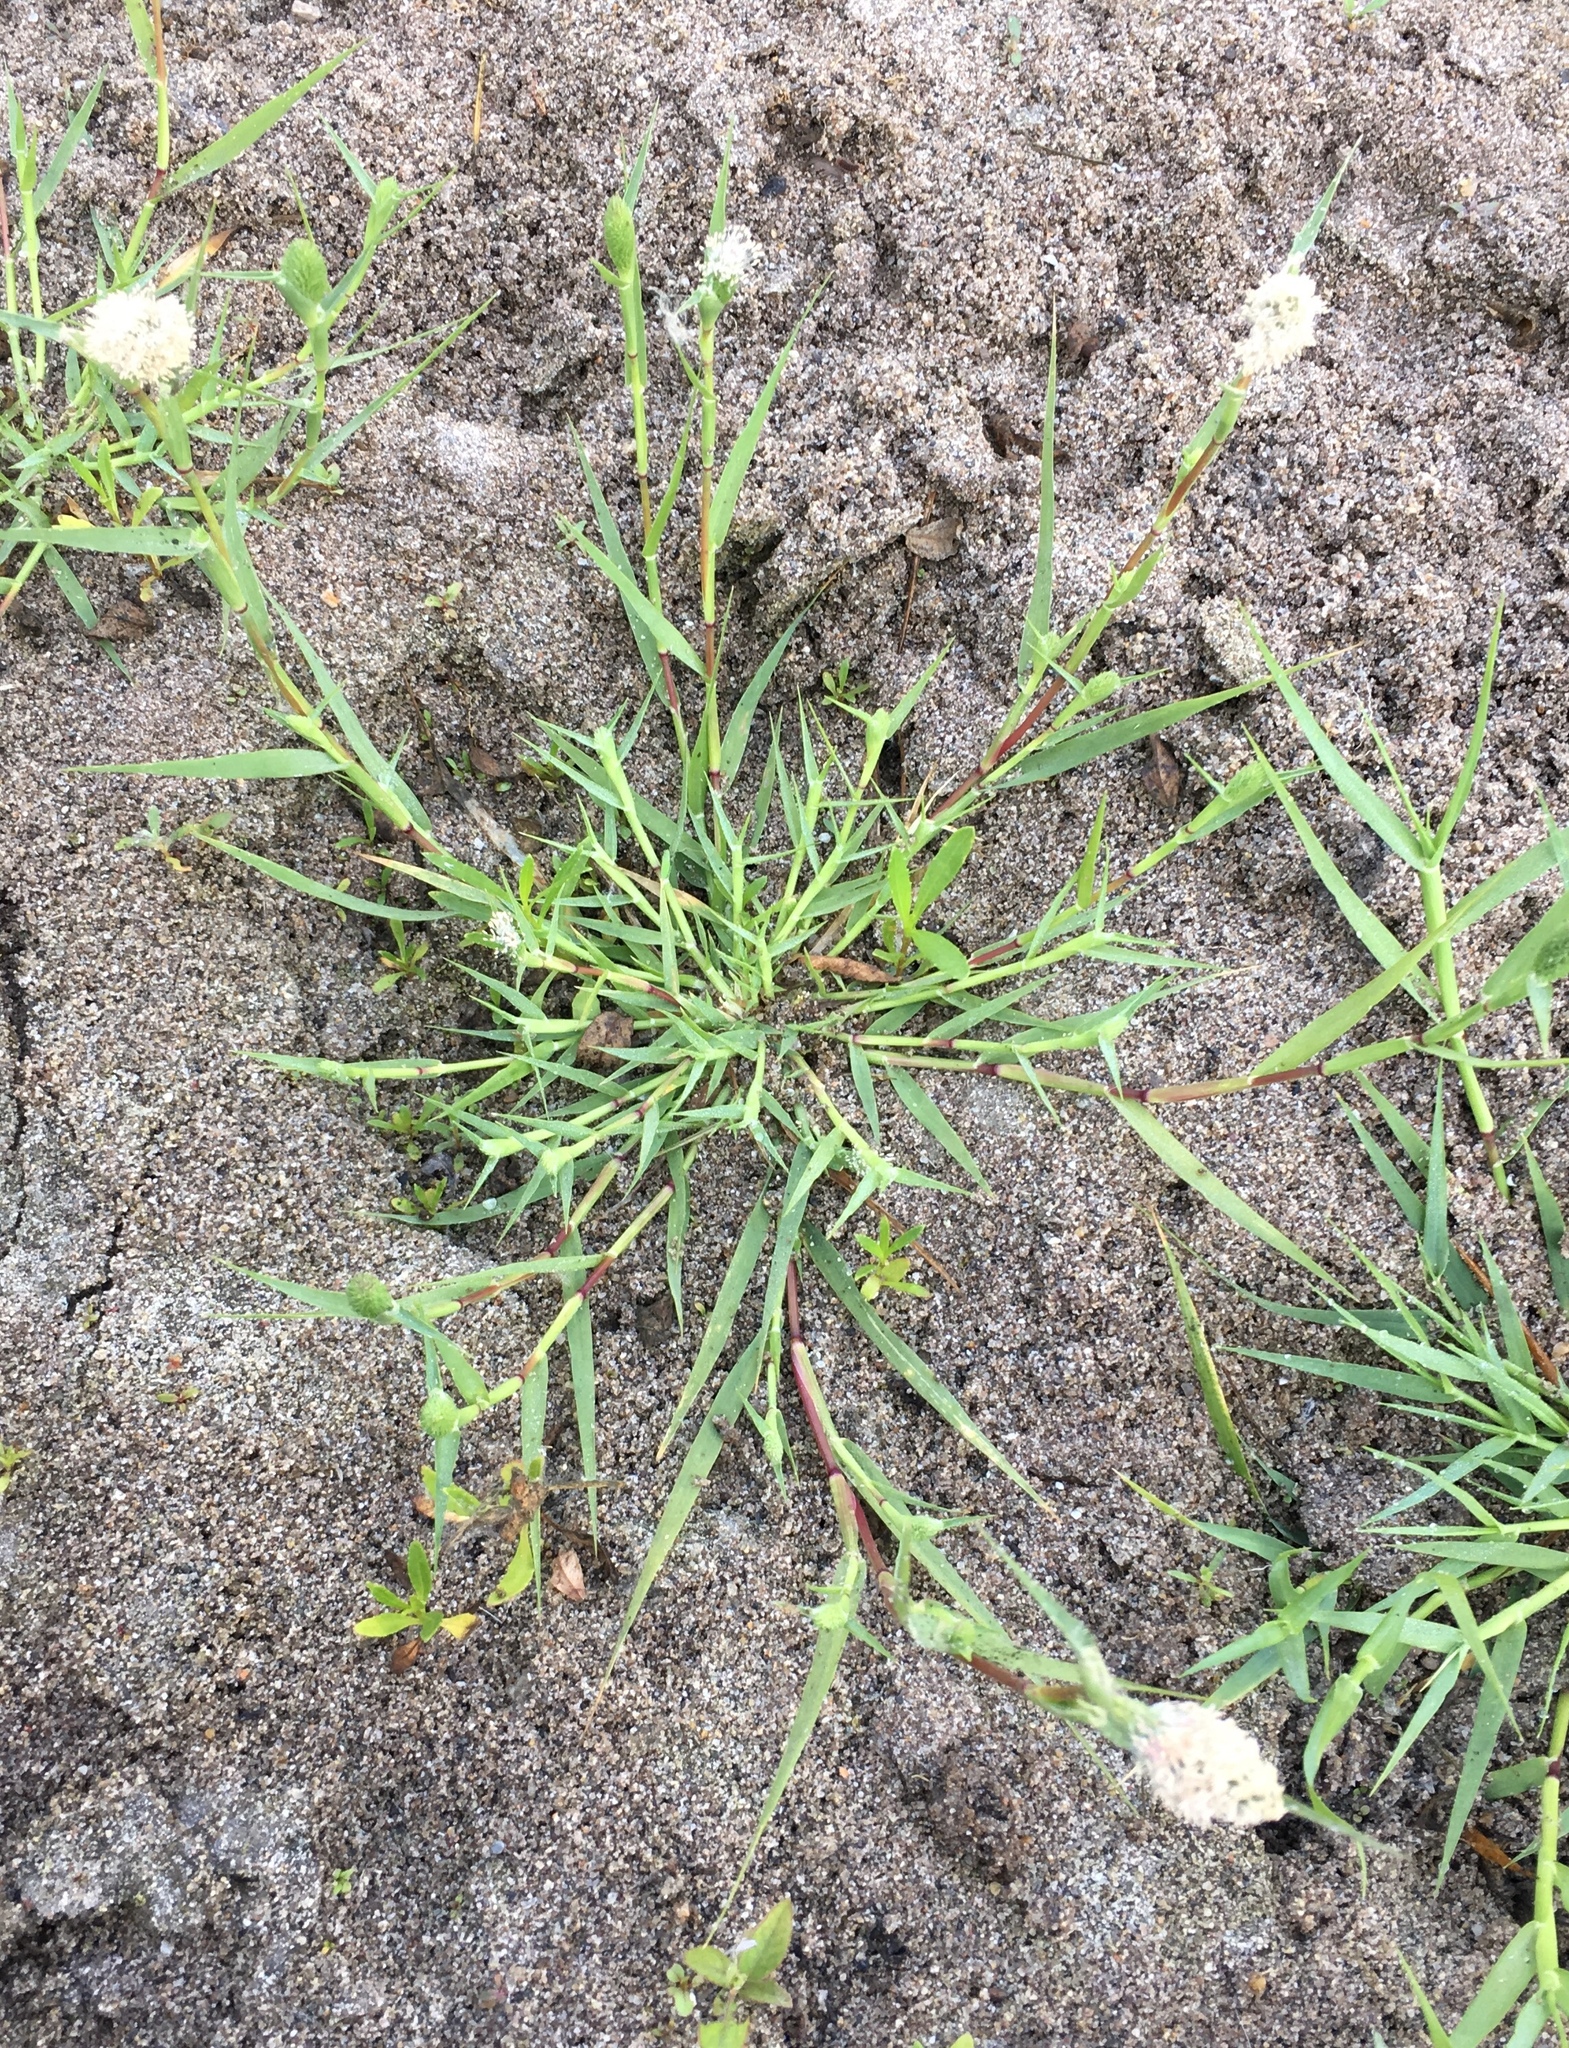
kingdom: Plantae
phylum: Tracheophyta
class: Liliopsida
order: Poales
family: Poaceae
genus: Sporobolus
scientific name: Sporobolus schoenoides
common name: Rush-like timothy
